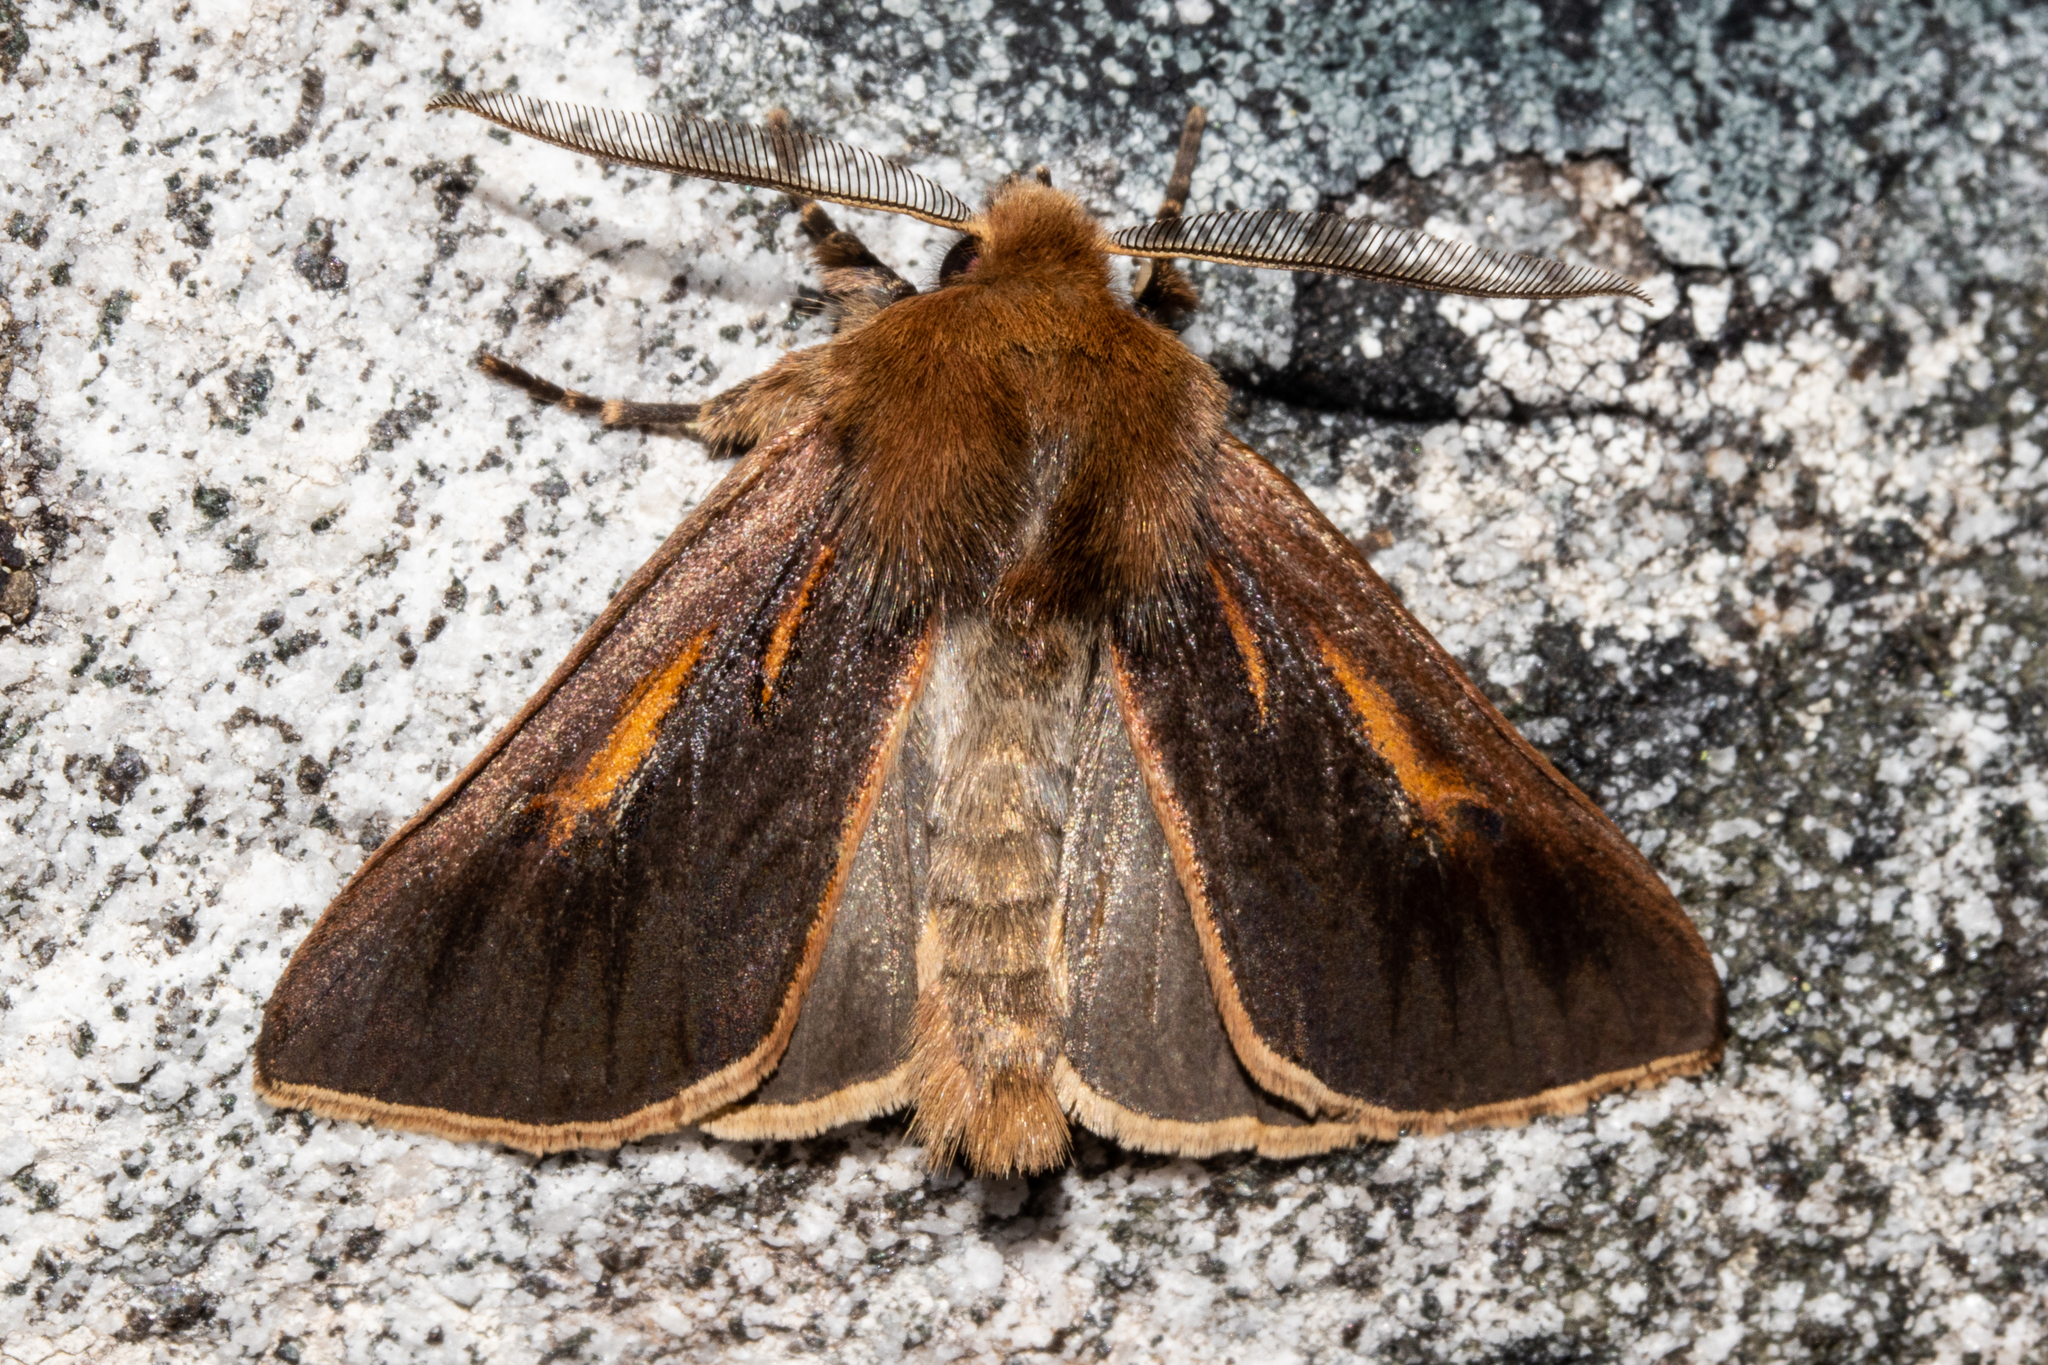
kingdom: Animalia
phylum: Arthropoda
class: Insecta
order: Lepidoptera
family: Noctuidae
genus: Ichneutica
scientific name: Ichneutica dione
